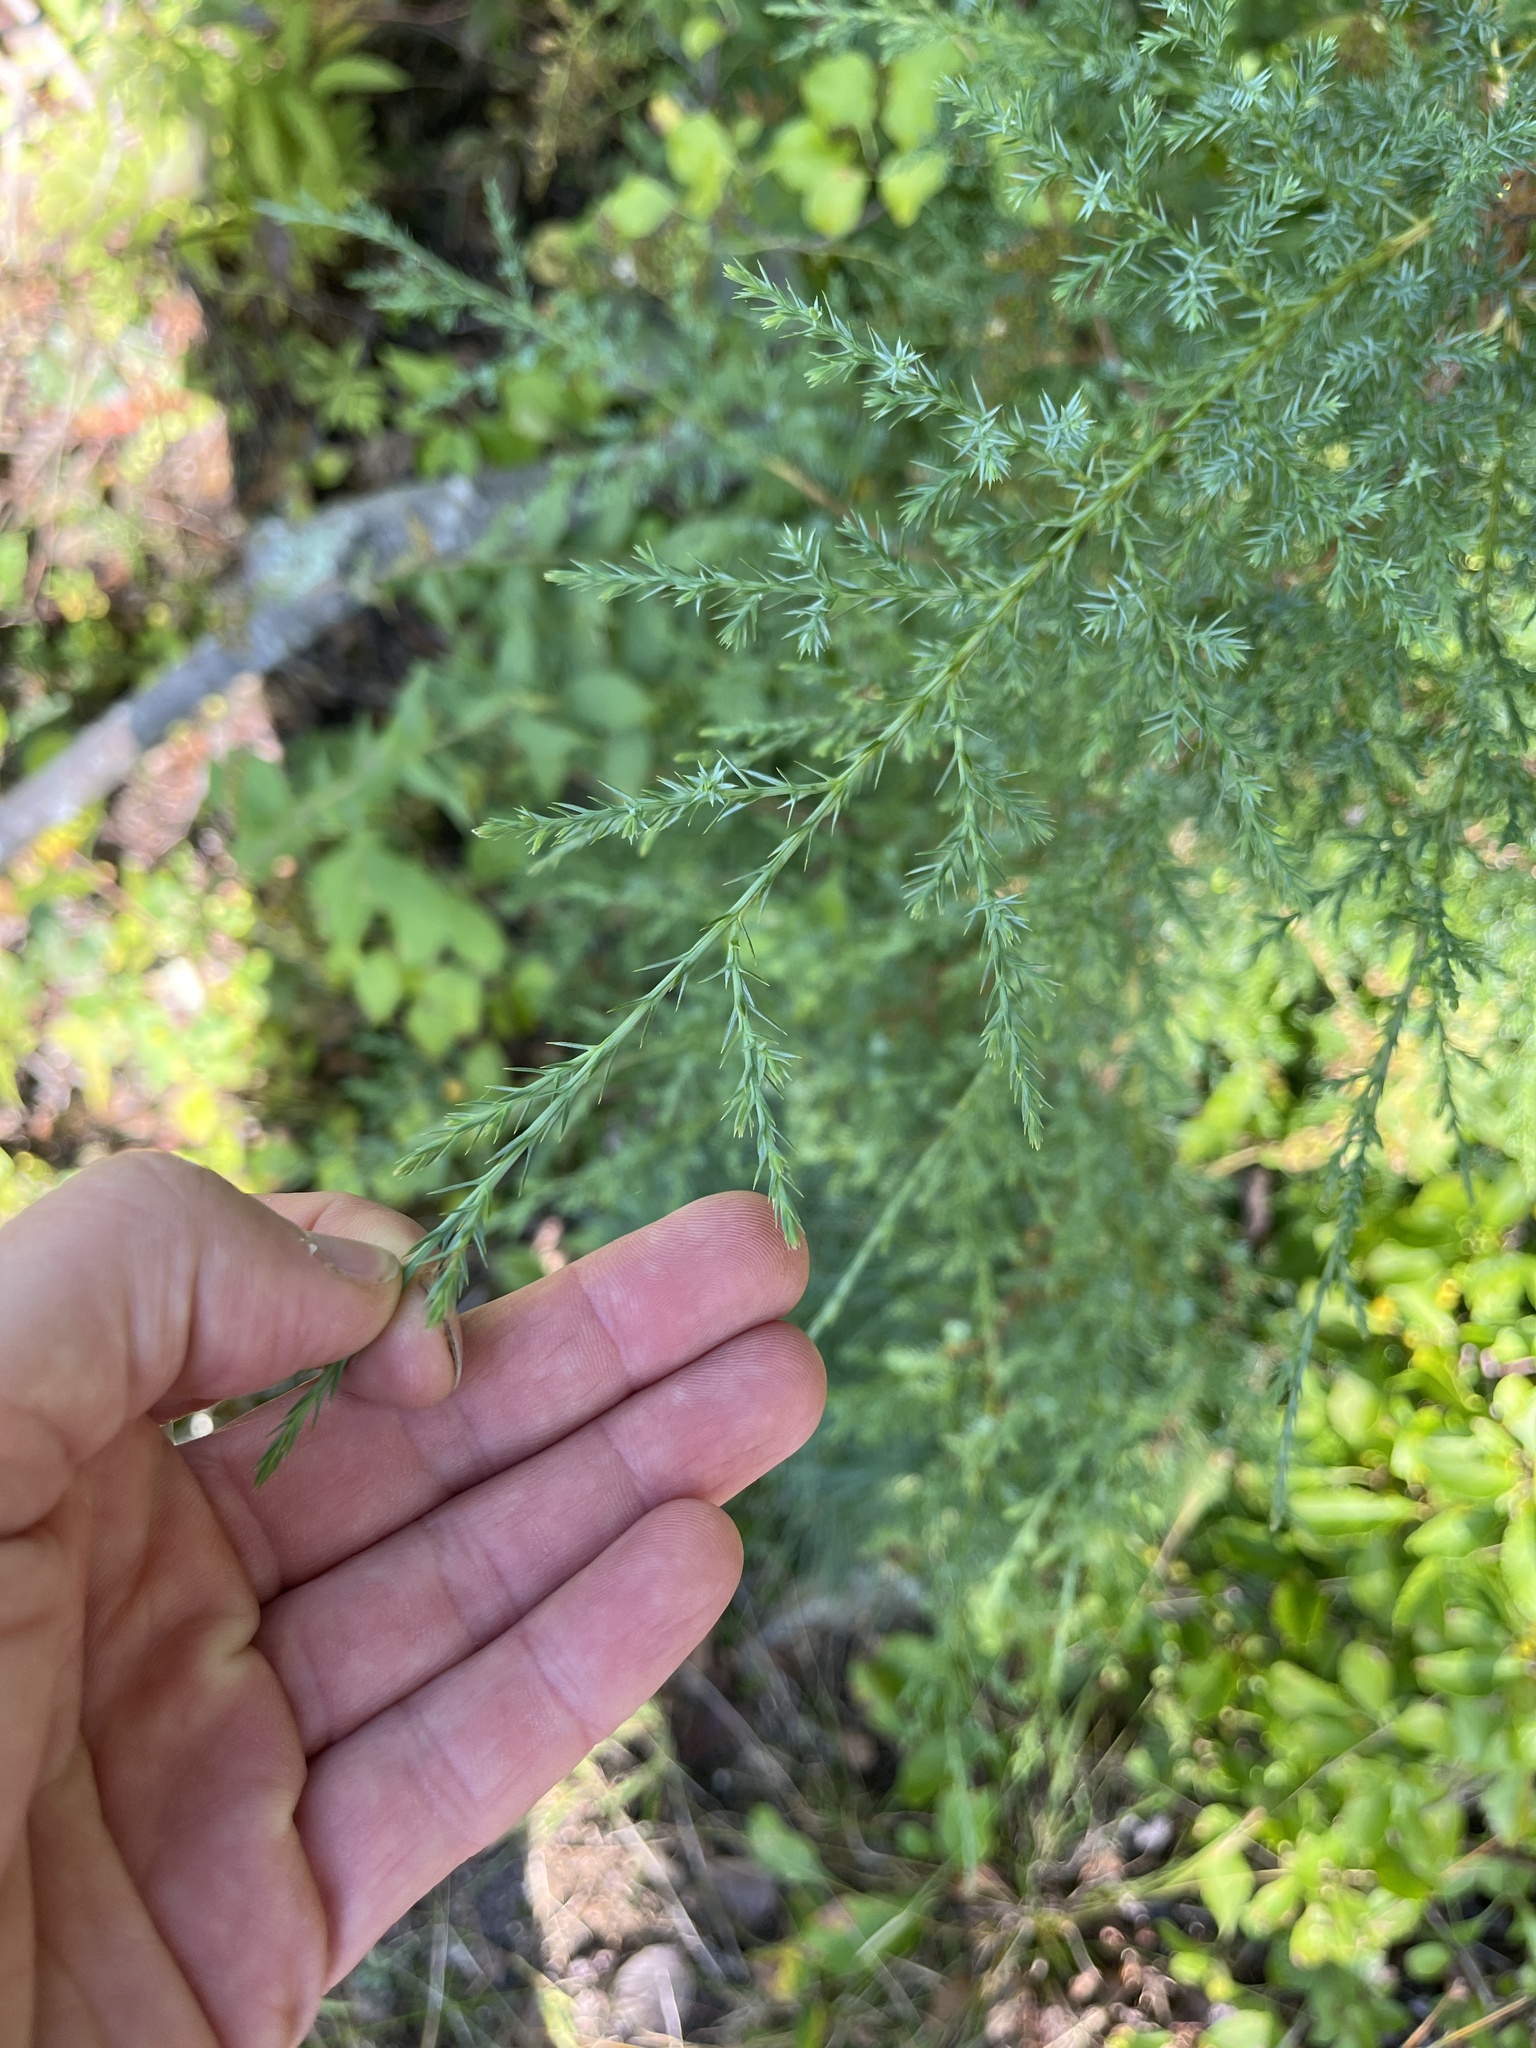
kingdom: Plantae
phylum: Tracheophyta
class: Pinopsida
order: Pinales
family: Cupressaceae
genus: Juniperus
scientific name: Juniperus virginiana
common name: Red juniper
